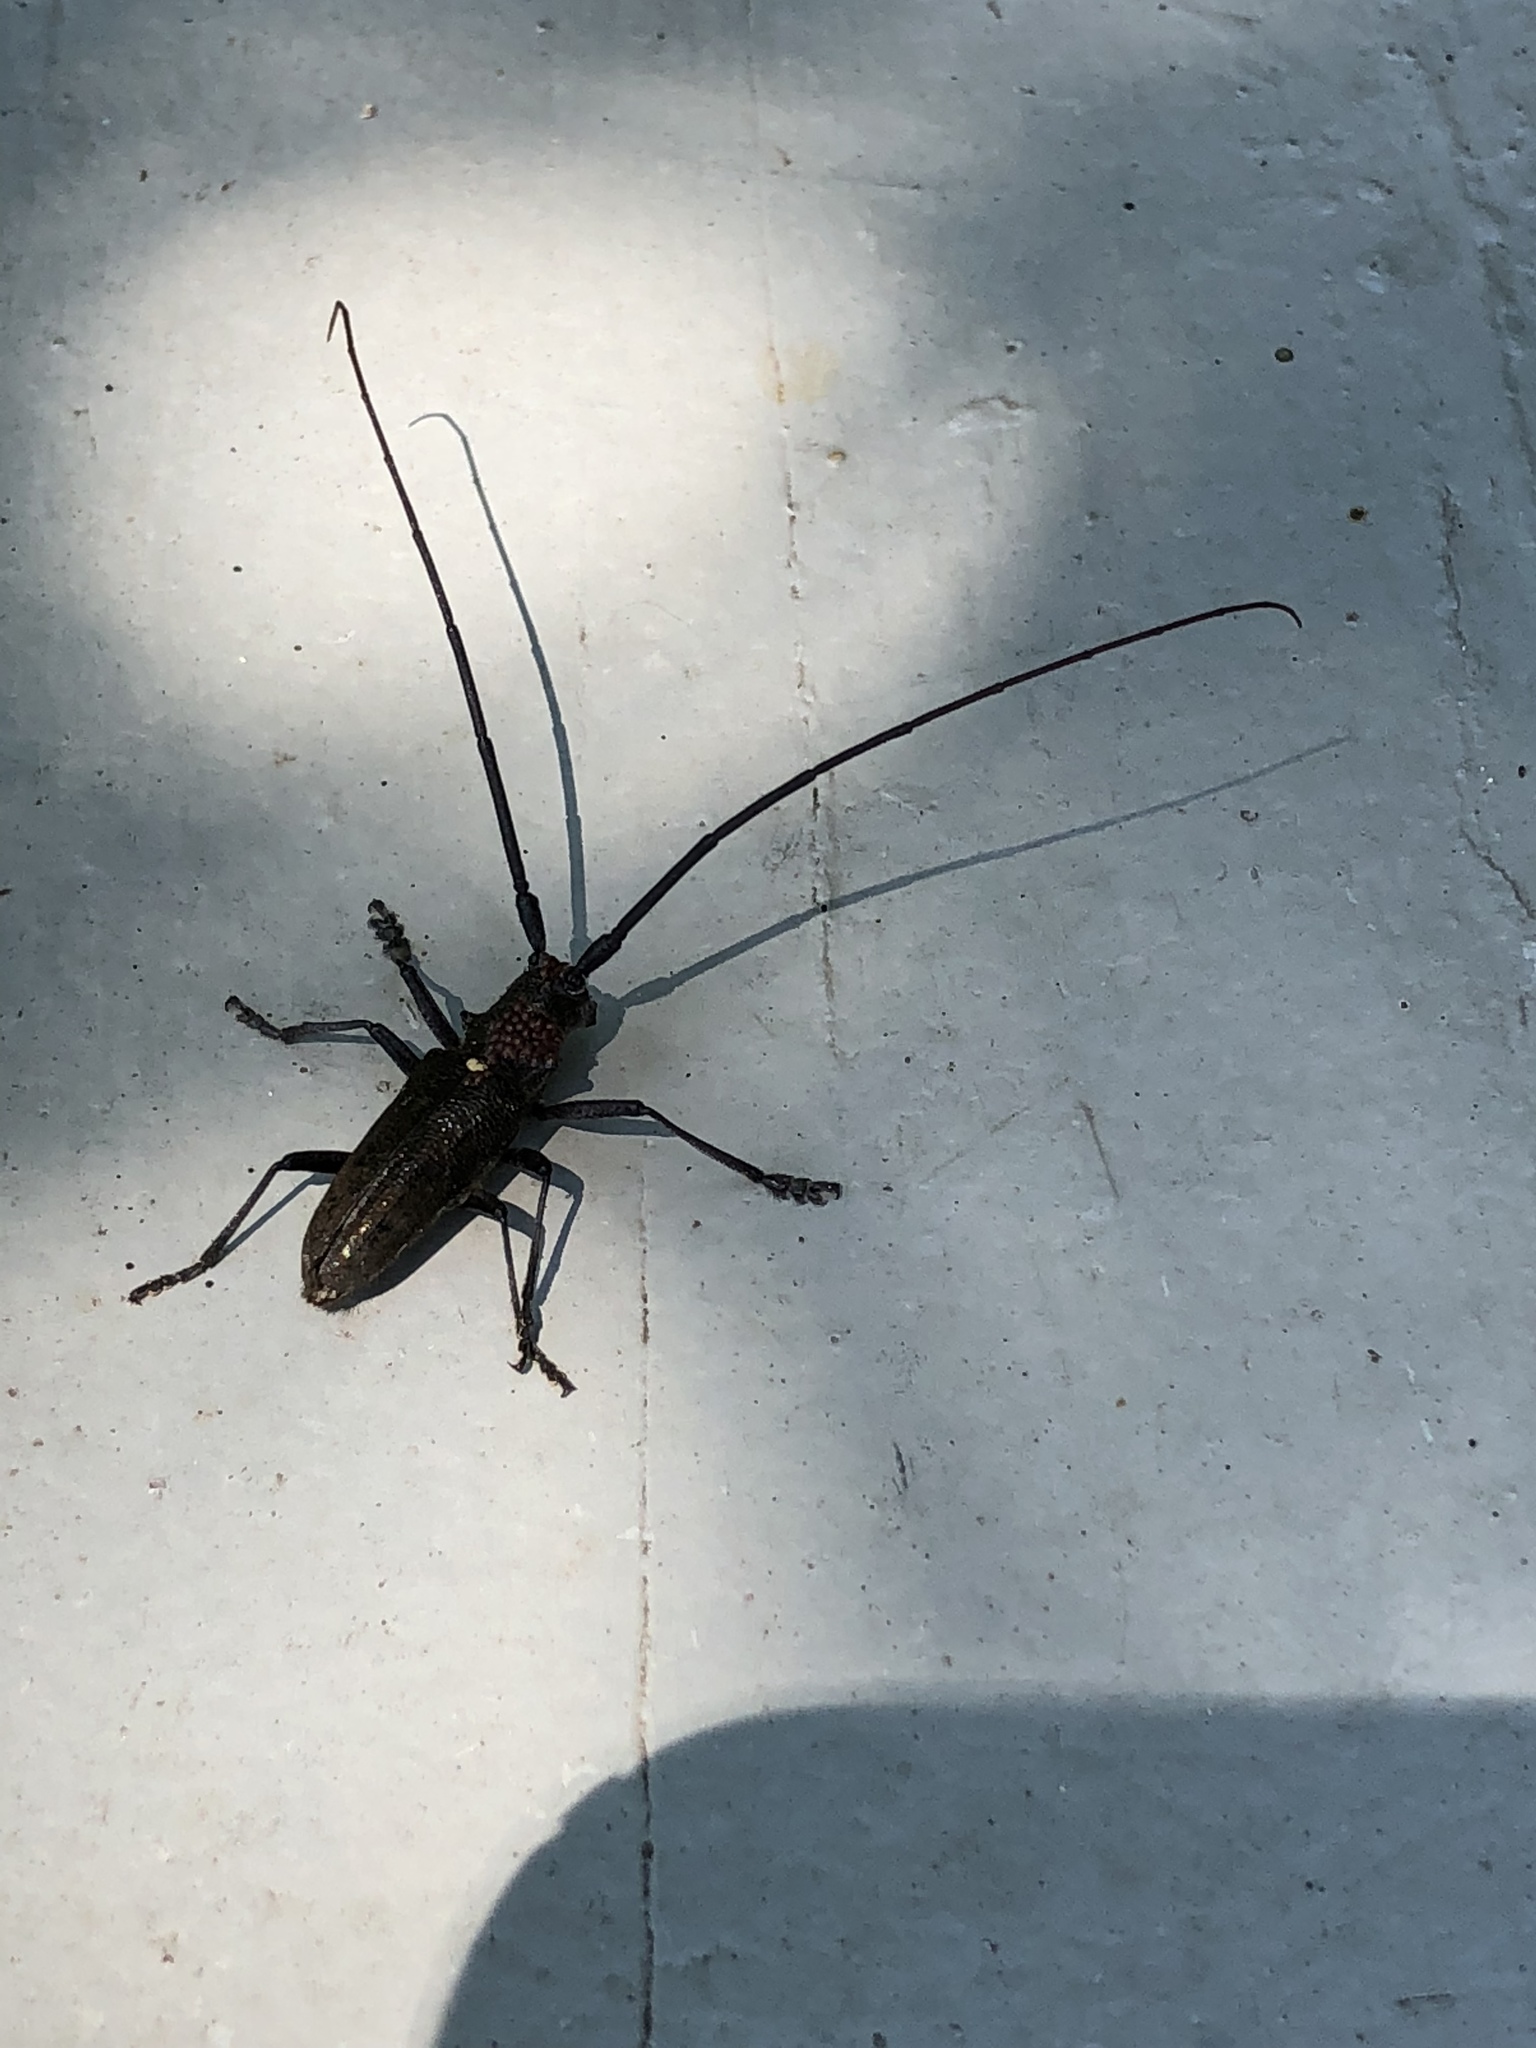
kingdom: Animalia
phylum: Arthropoda
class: Insecta
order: Coleoptera
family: Cerambycidae
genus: Monochamus
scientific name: Monochamus scutellatus
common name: White-spotted sawyer beetle
